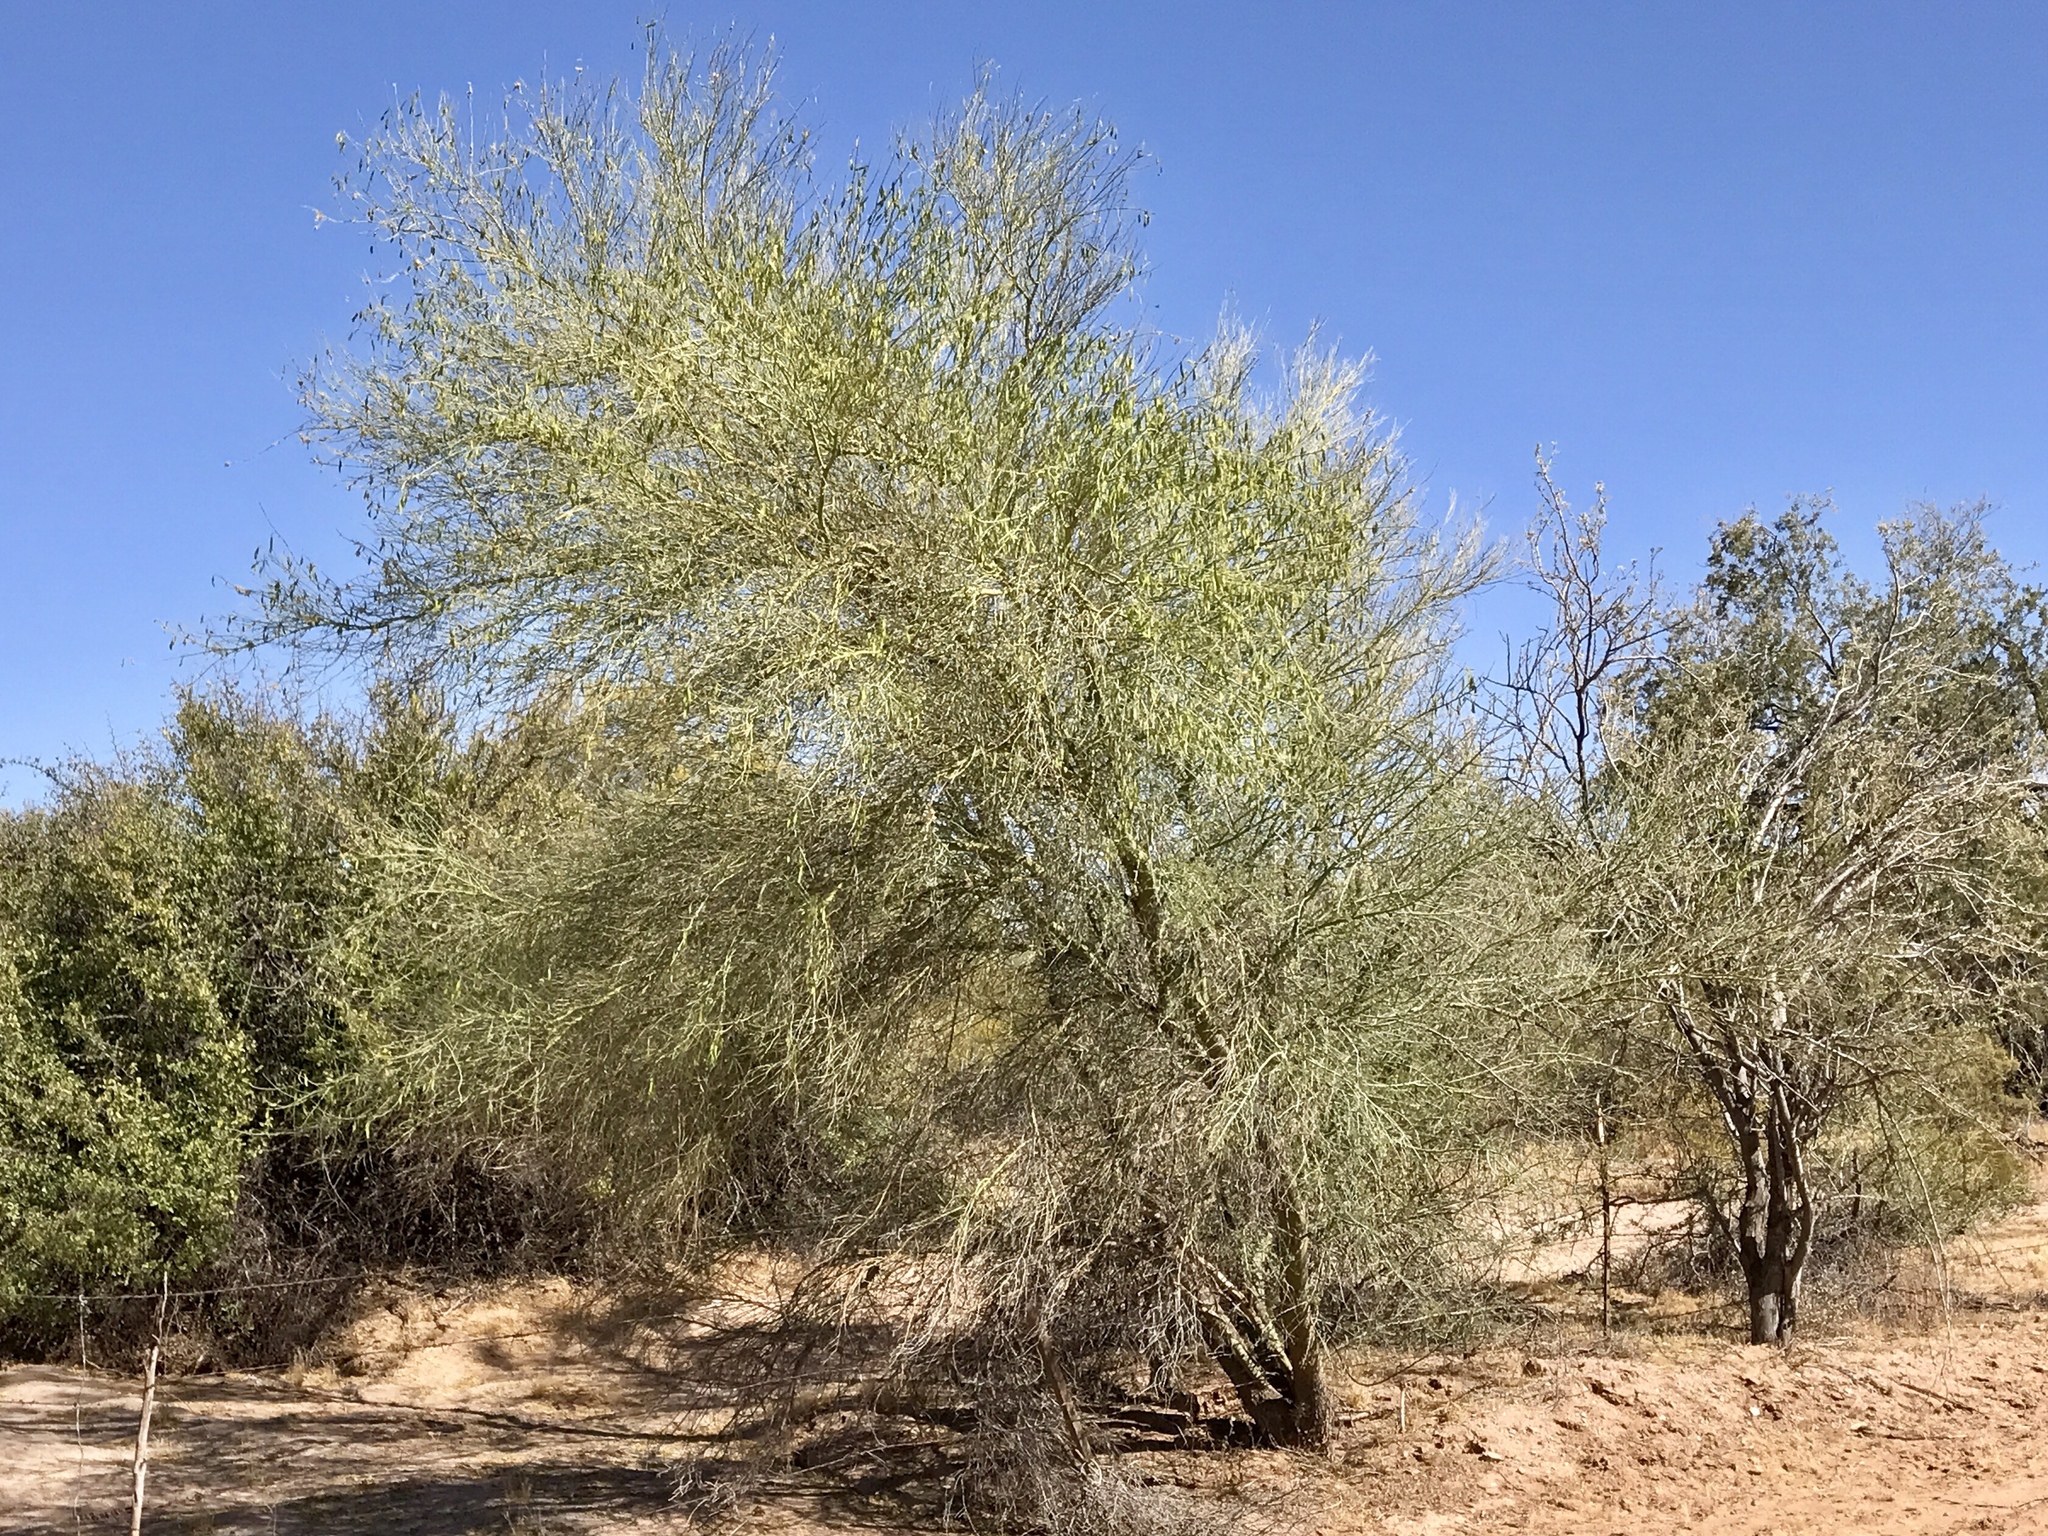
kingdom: Plantae
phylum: Tracheophyta
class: Magnoliopsida
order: Fabales
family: Fabaceae
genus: Parkinsonia
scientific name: Parkinsonia microphylla
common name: Yellow paloverde
